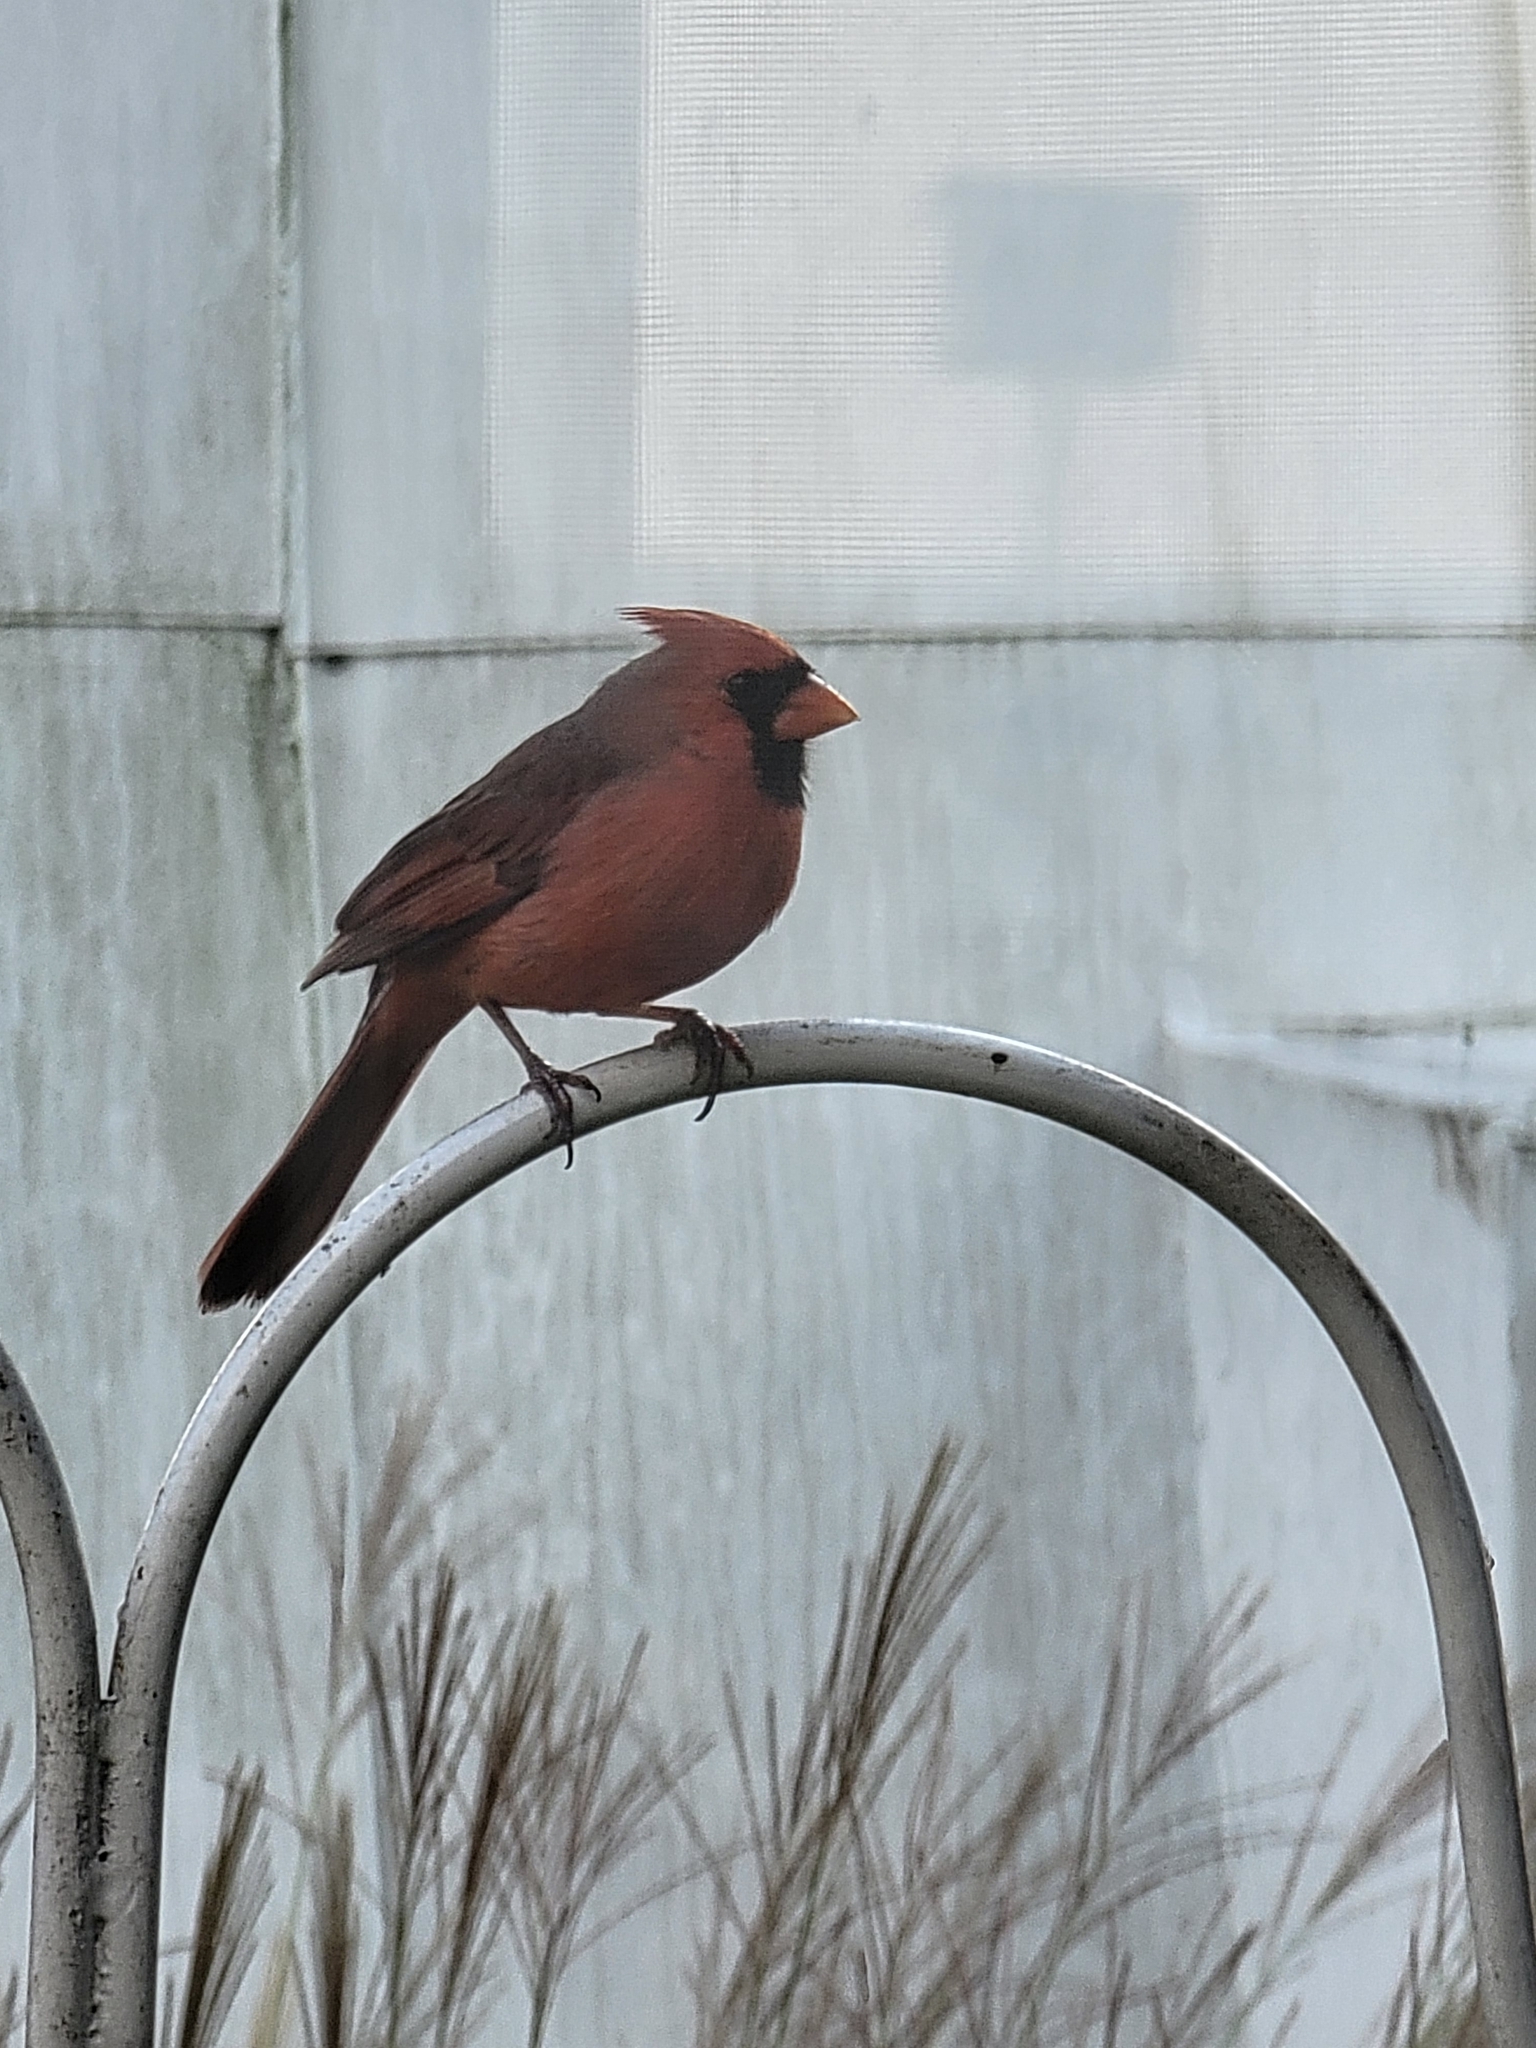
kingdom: Animalia
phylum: Chordata
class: Aves
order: Passeriformes
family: Cardinalidae
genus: Cardinalis
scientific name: Cardinalis cardinalis
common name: Northern cardinal
